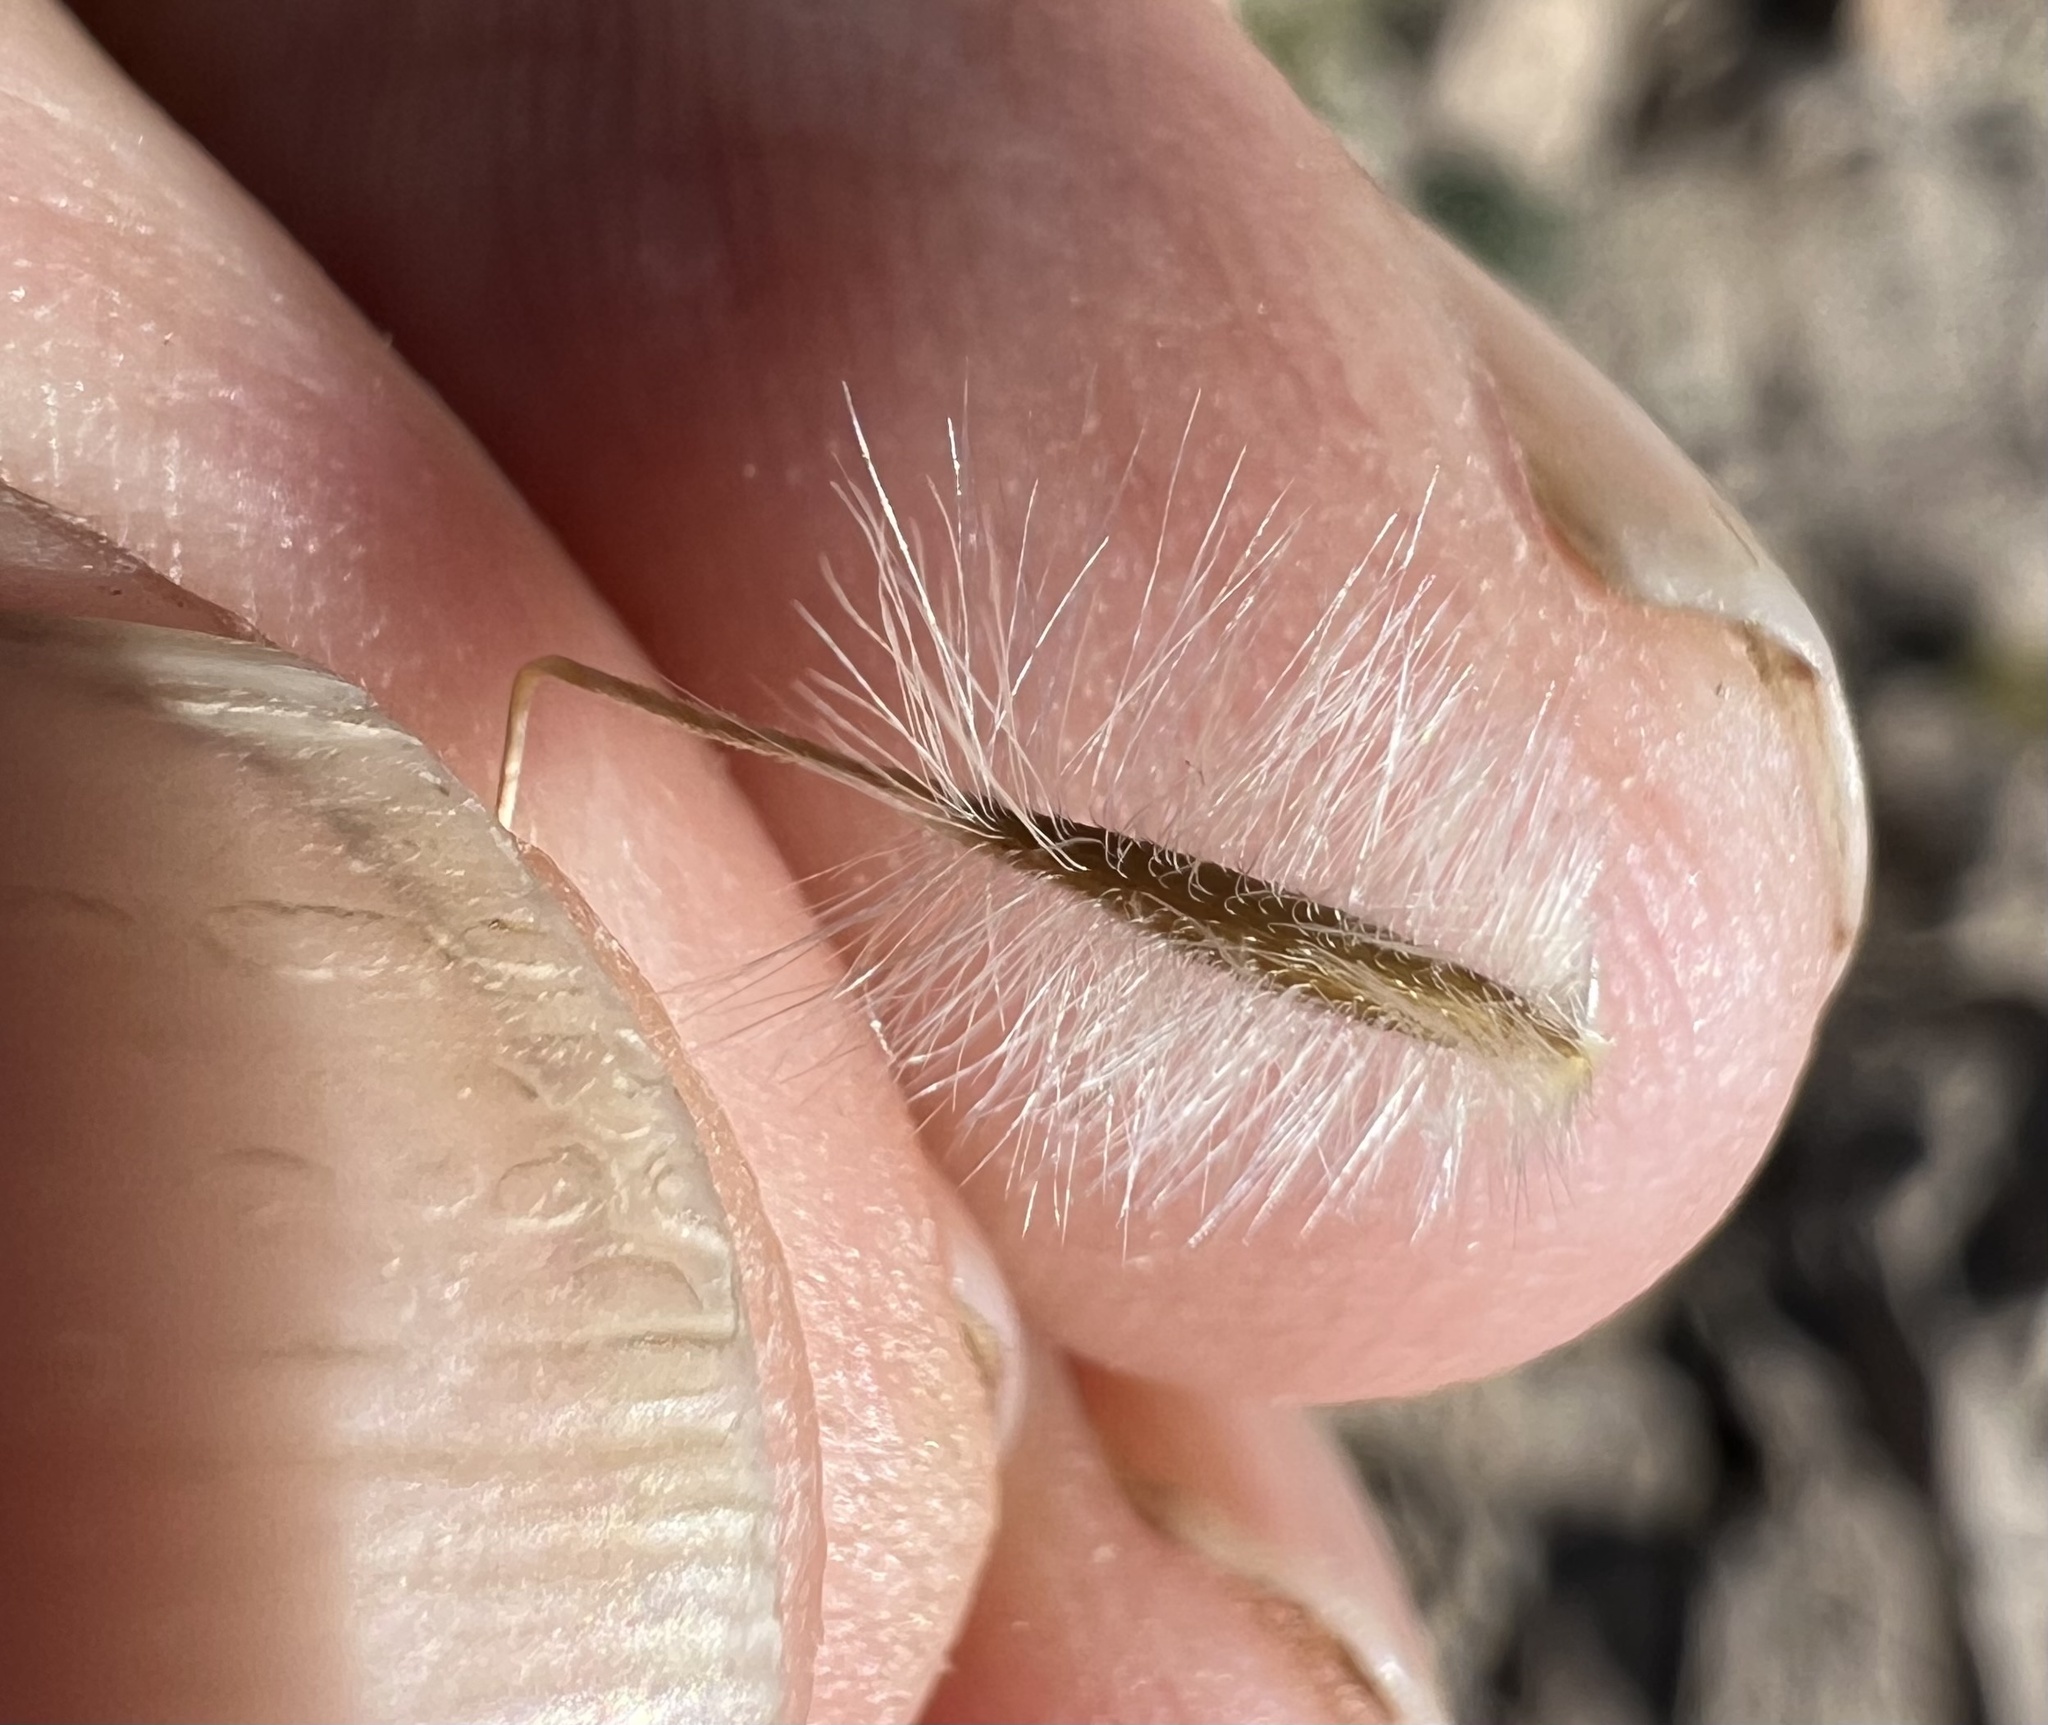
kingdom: Plantae
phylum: Tracheophyta
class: Liliopsida
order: Poales
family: Poaceae
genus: Eriocoma
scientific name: Eriocoma parishii
